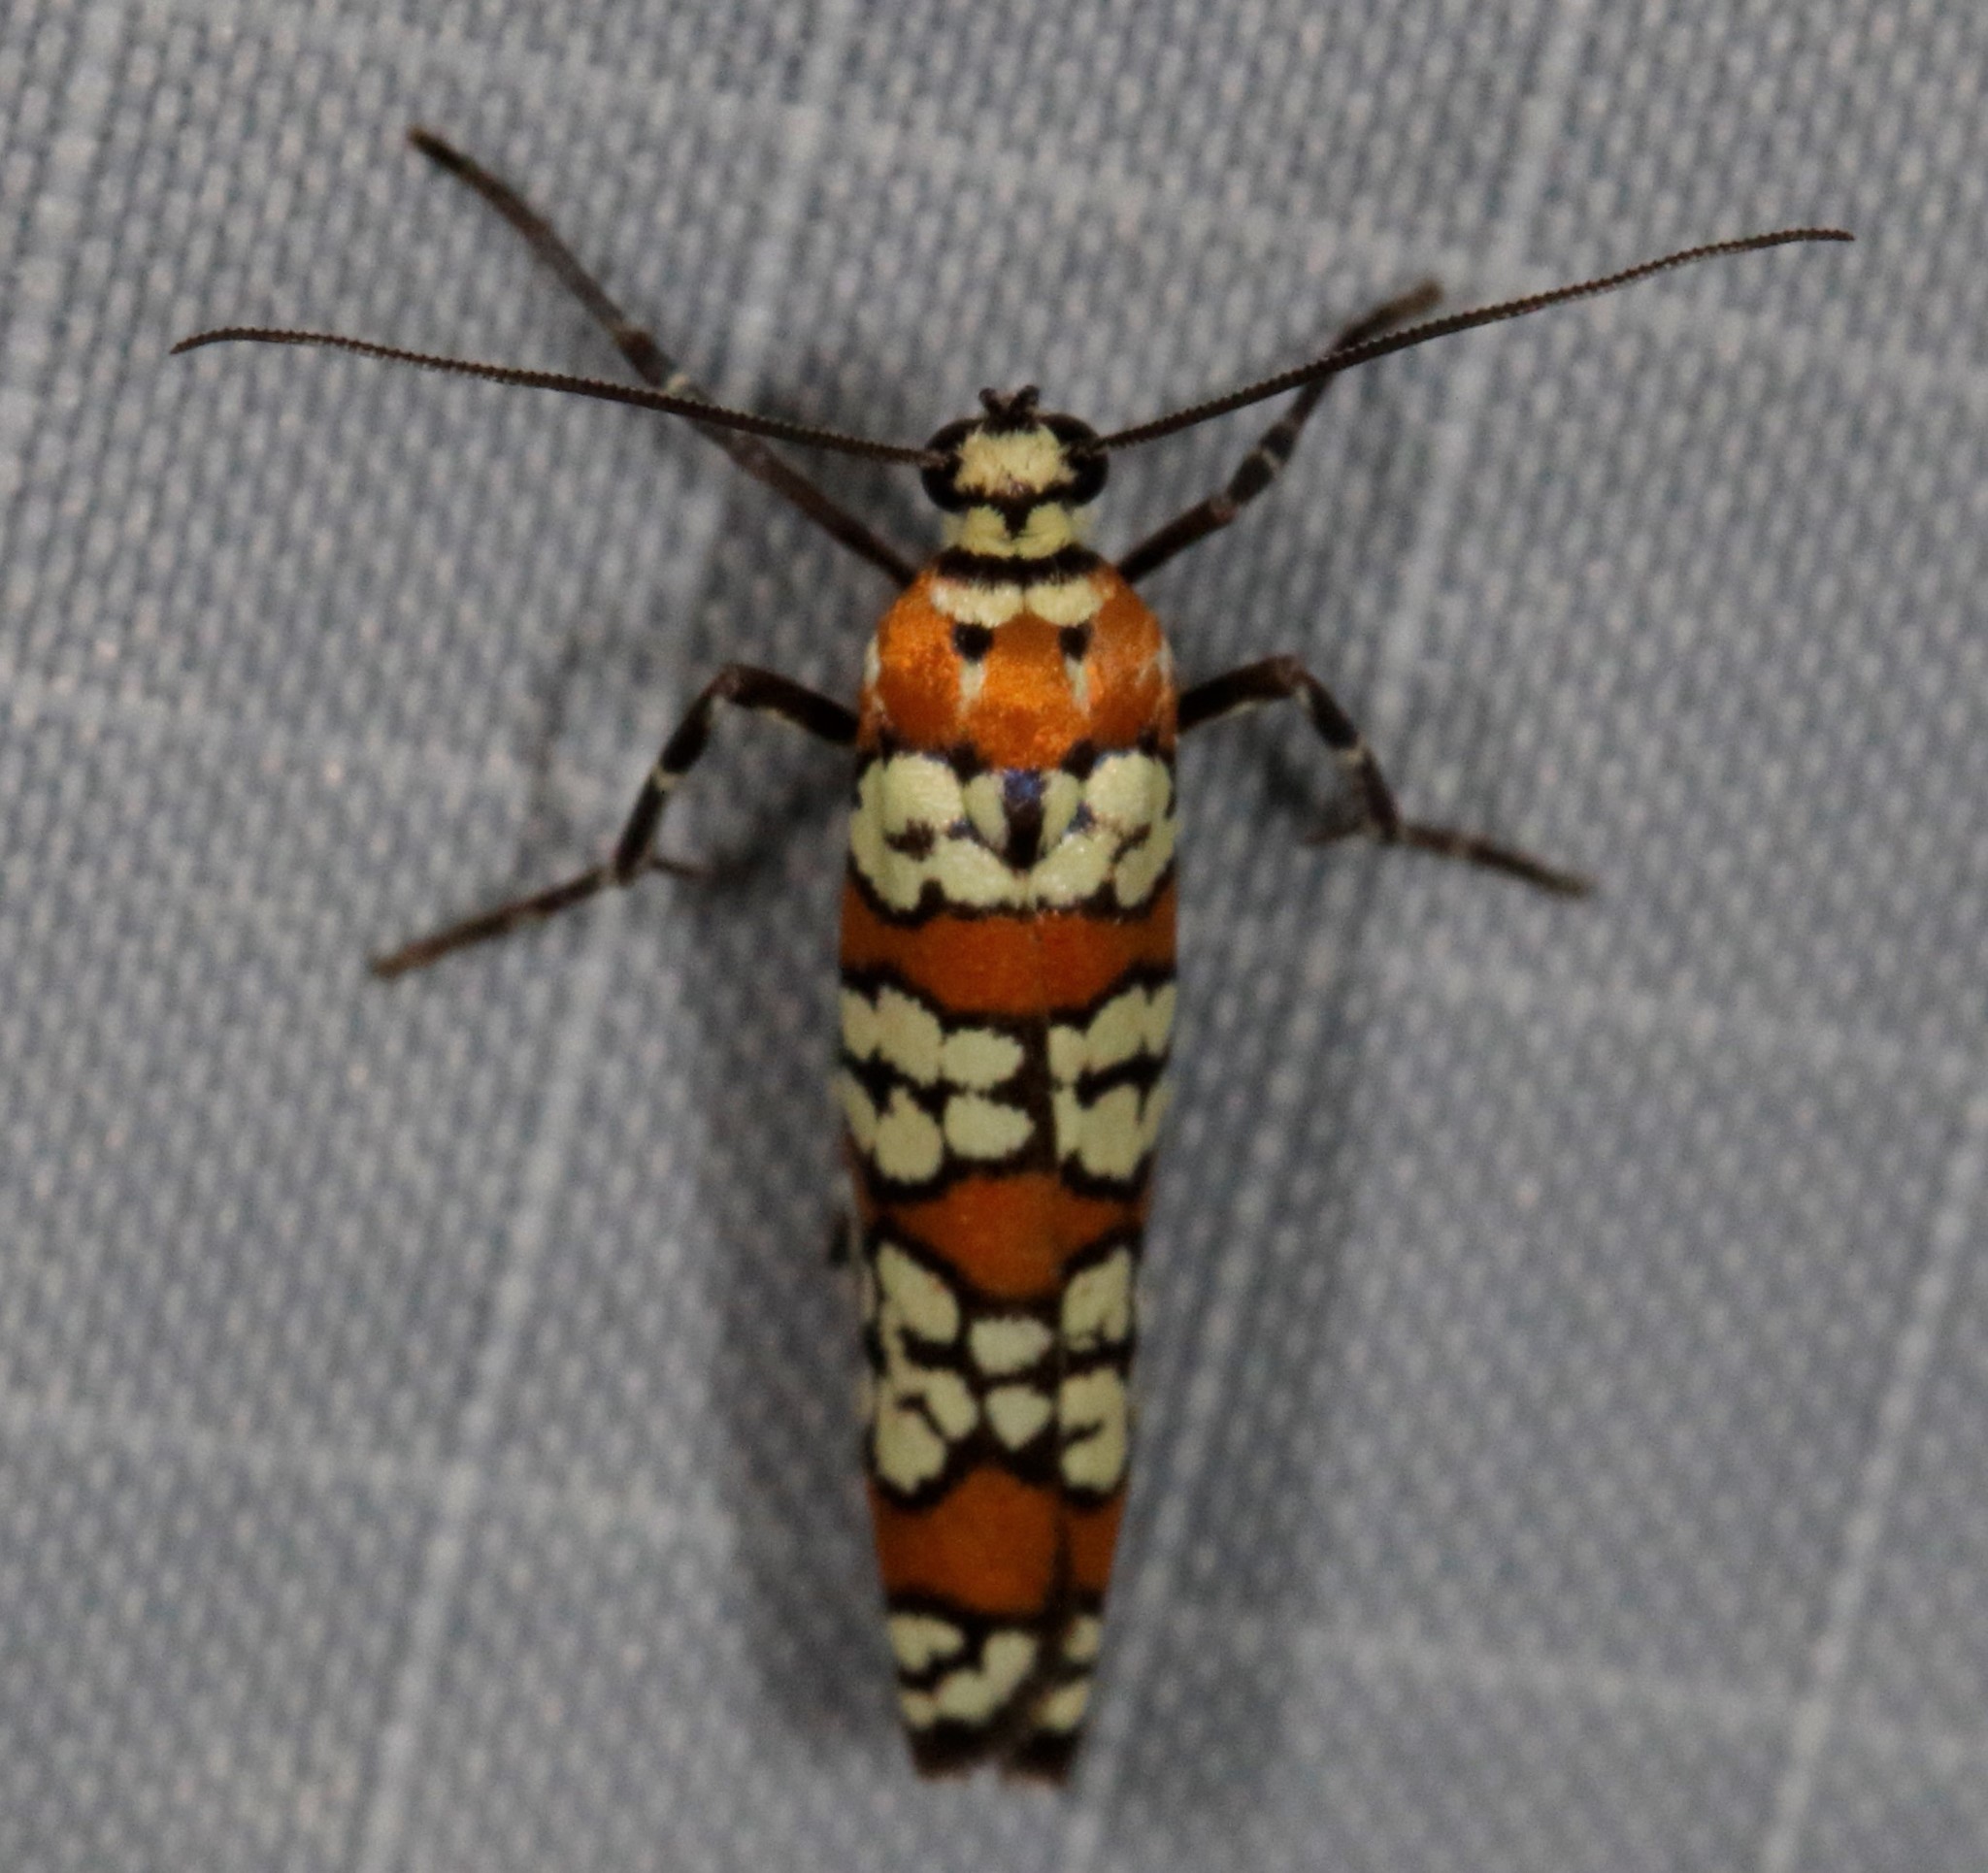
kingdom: Animalia
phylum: Arthropoda
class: Insecta
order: Lepidoptera
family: Attevidae
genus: Atteva
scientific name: Atteva punctella
